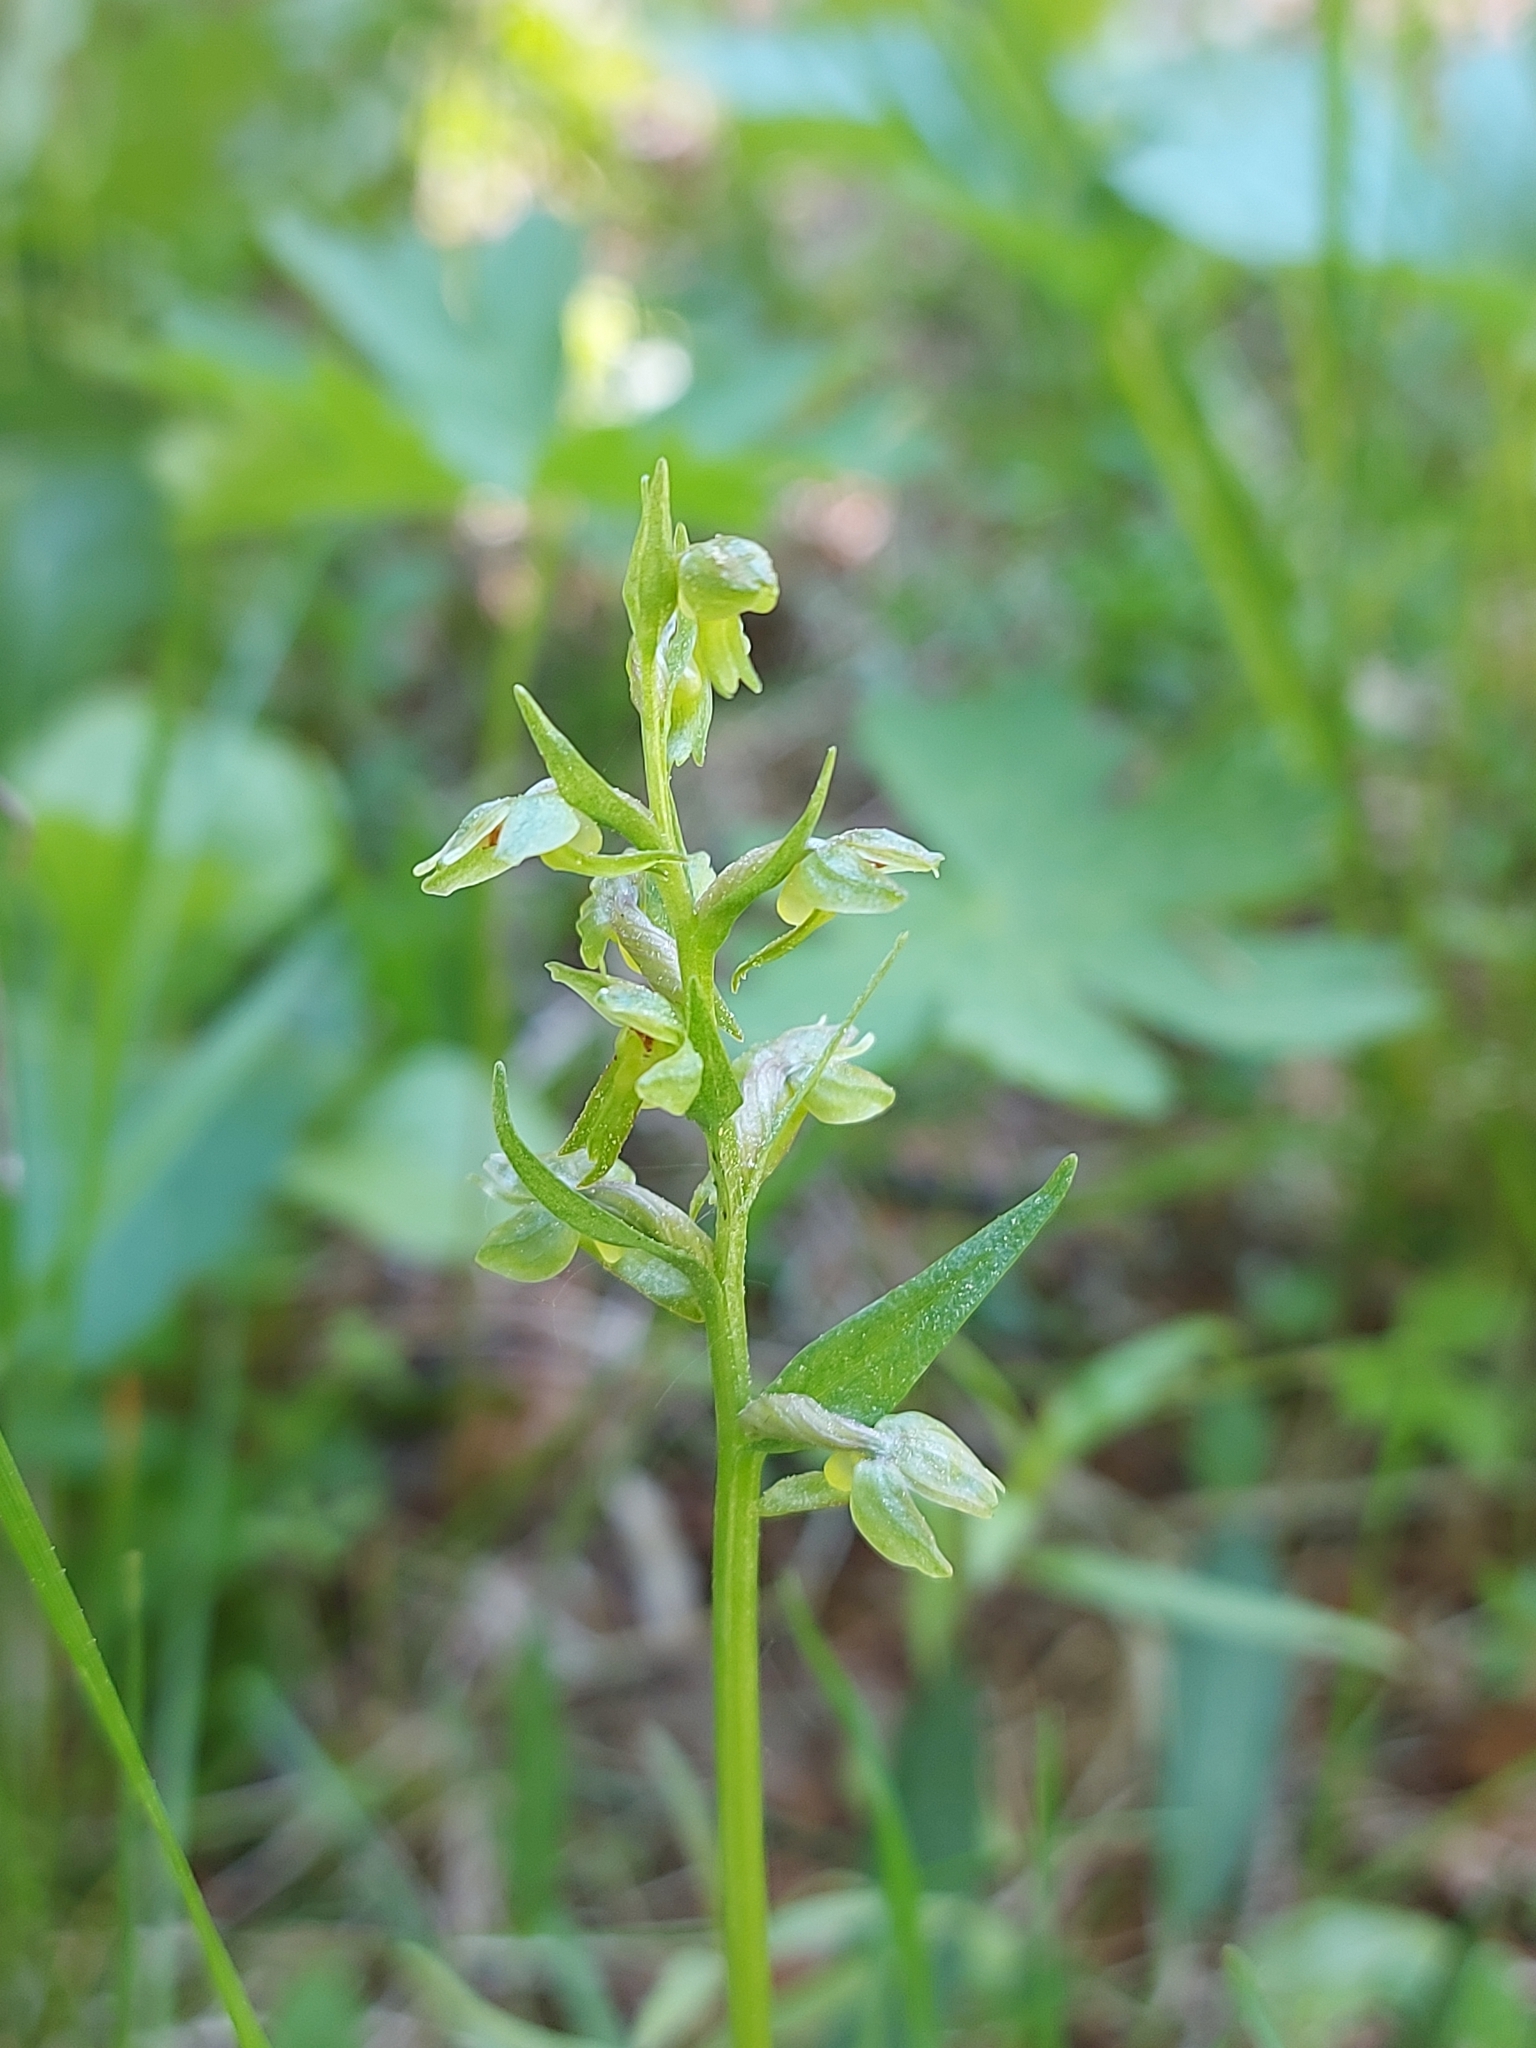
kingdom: Plantae
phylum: Tracheophyta
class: Liliopsida
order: Asparagales
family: Orchidaceae
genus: Dactylorhiza
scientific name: Dactylorhiza viridis
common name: Longbract frog orchid
